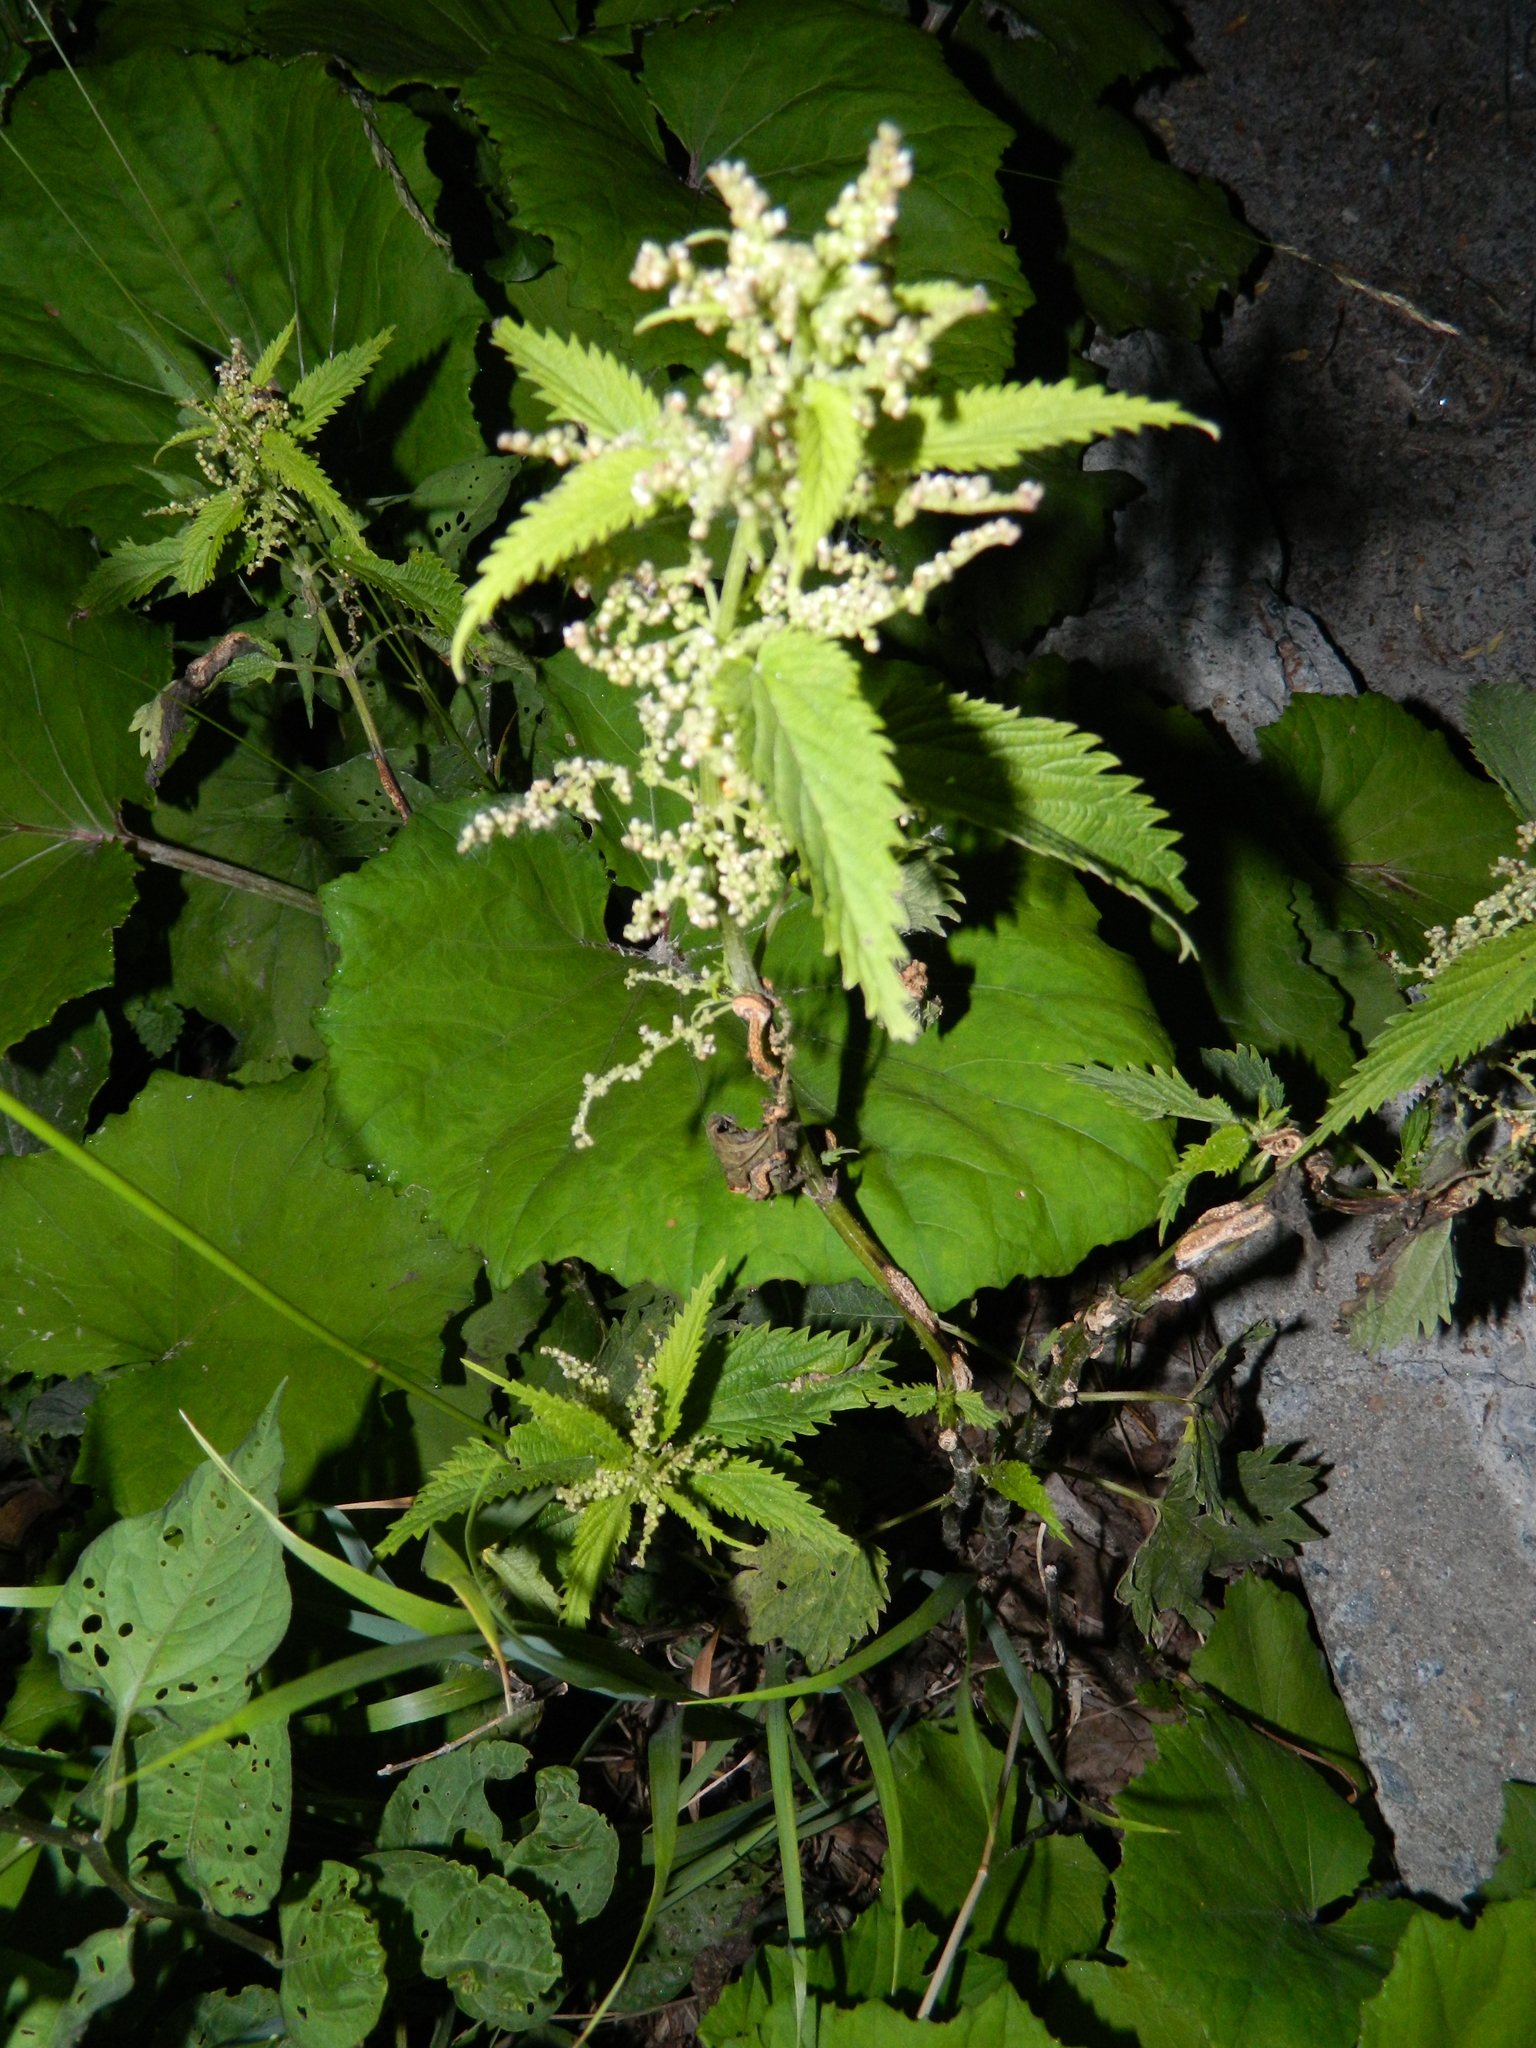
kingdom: Plantae
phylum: Tracheophyta
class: Magnoliopsida
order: Rosales
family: Urticaceae
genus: Urtica
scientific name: Urtica dioica
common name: Common nettle
